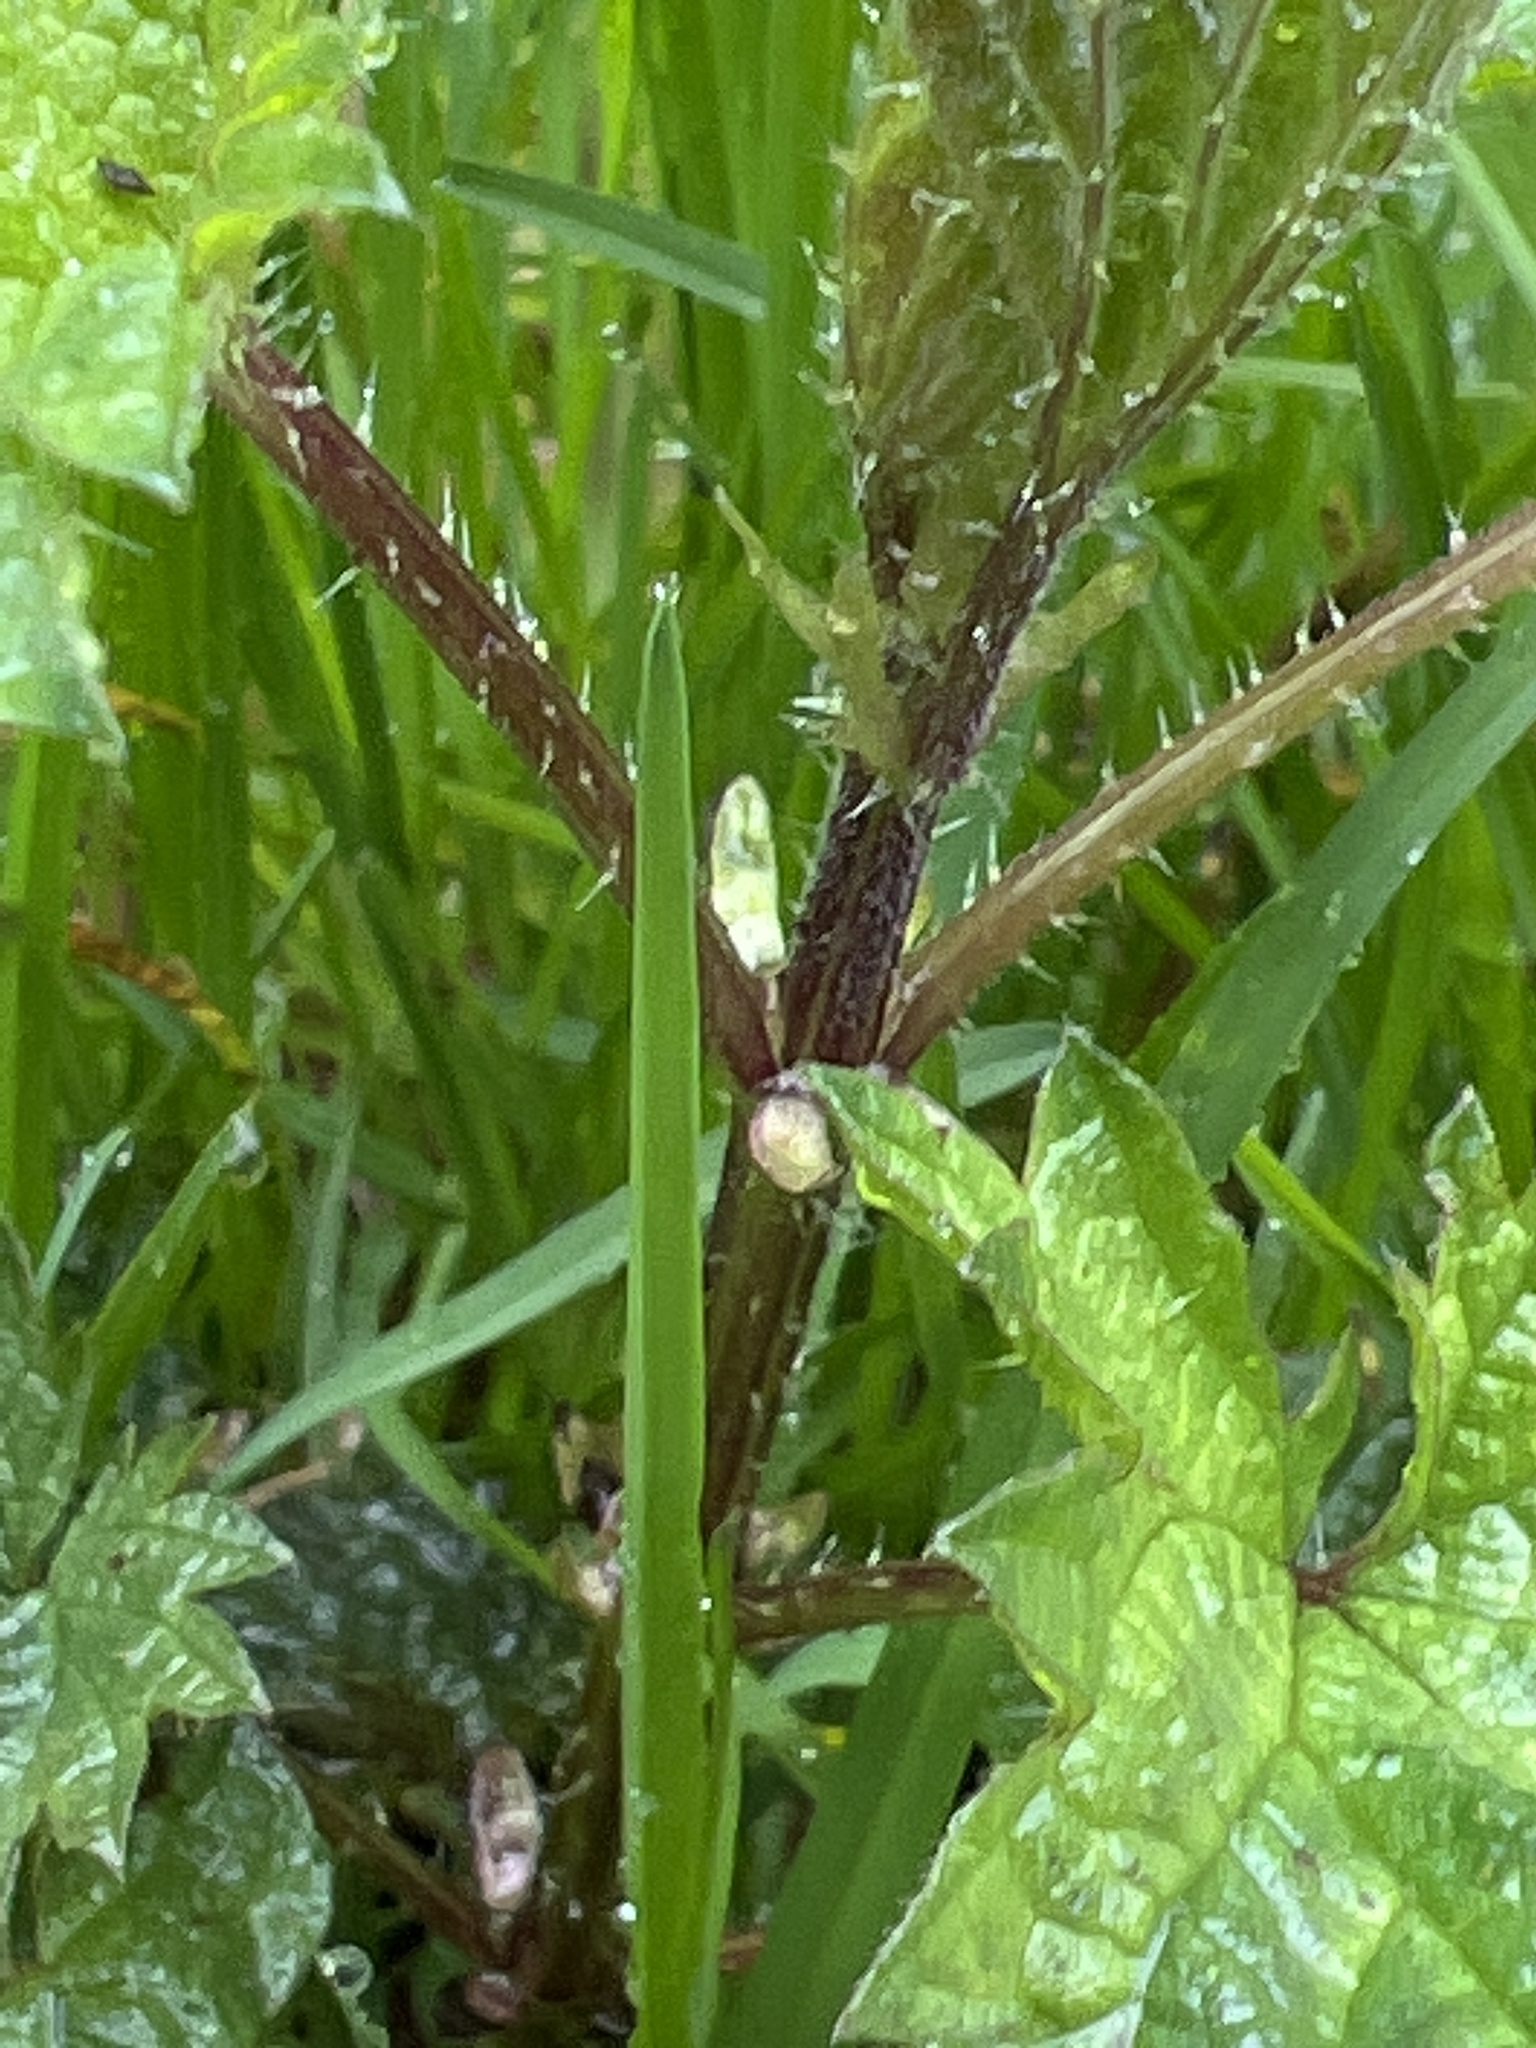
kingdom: Plantae
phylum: Tracheophyta
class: Magnoliopsida
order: Rosales
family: Urticaceae
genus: Urtica
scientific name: Urtica dioica
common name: Common nettle
